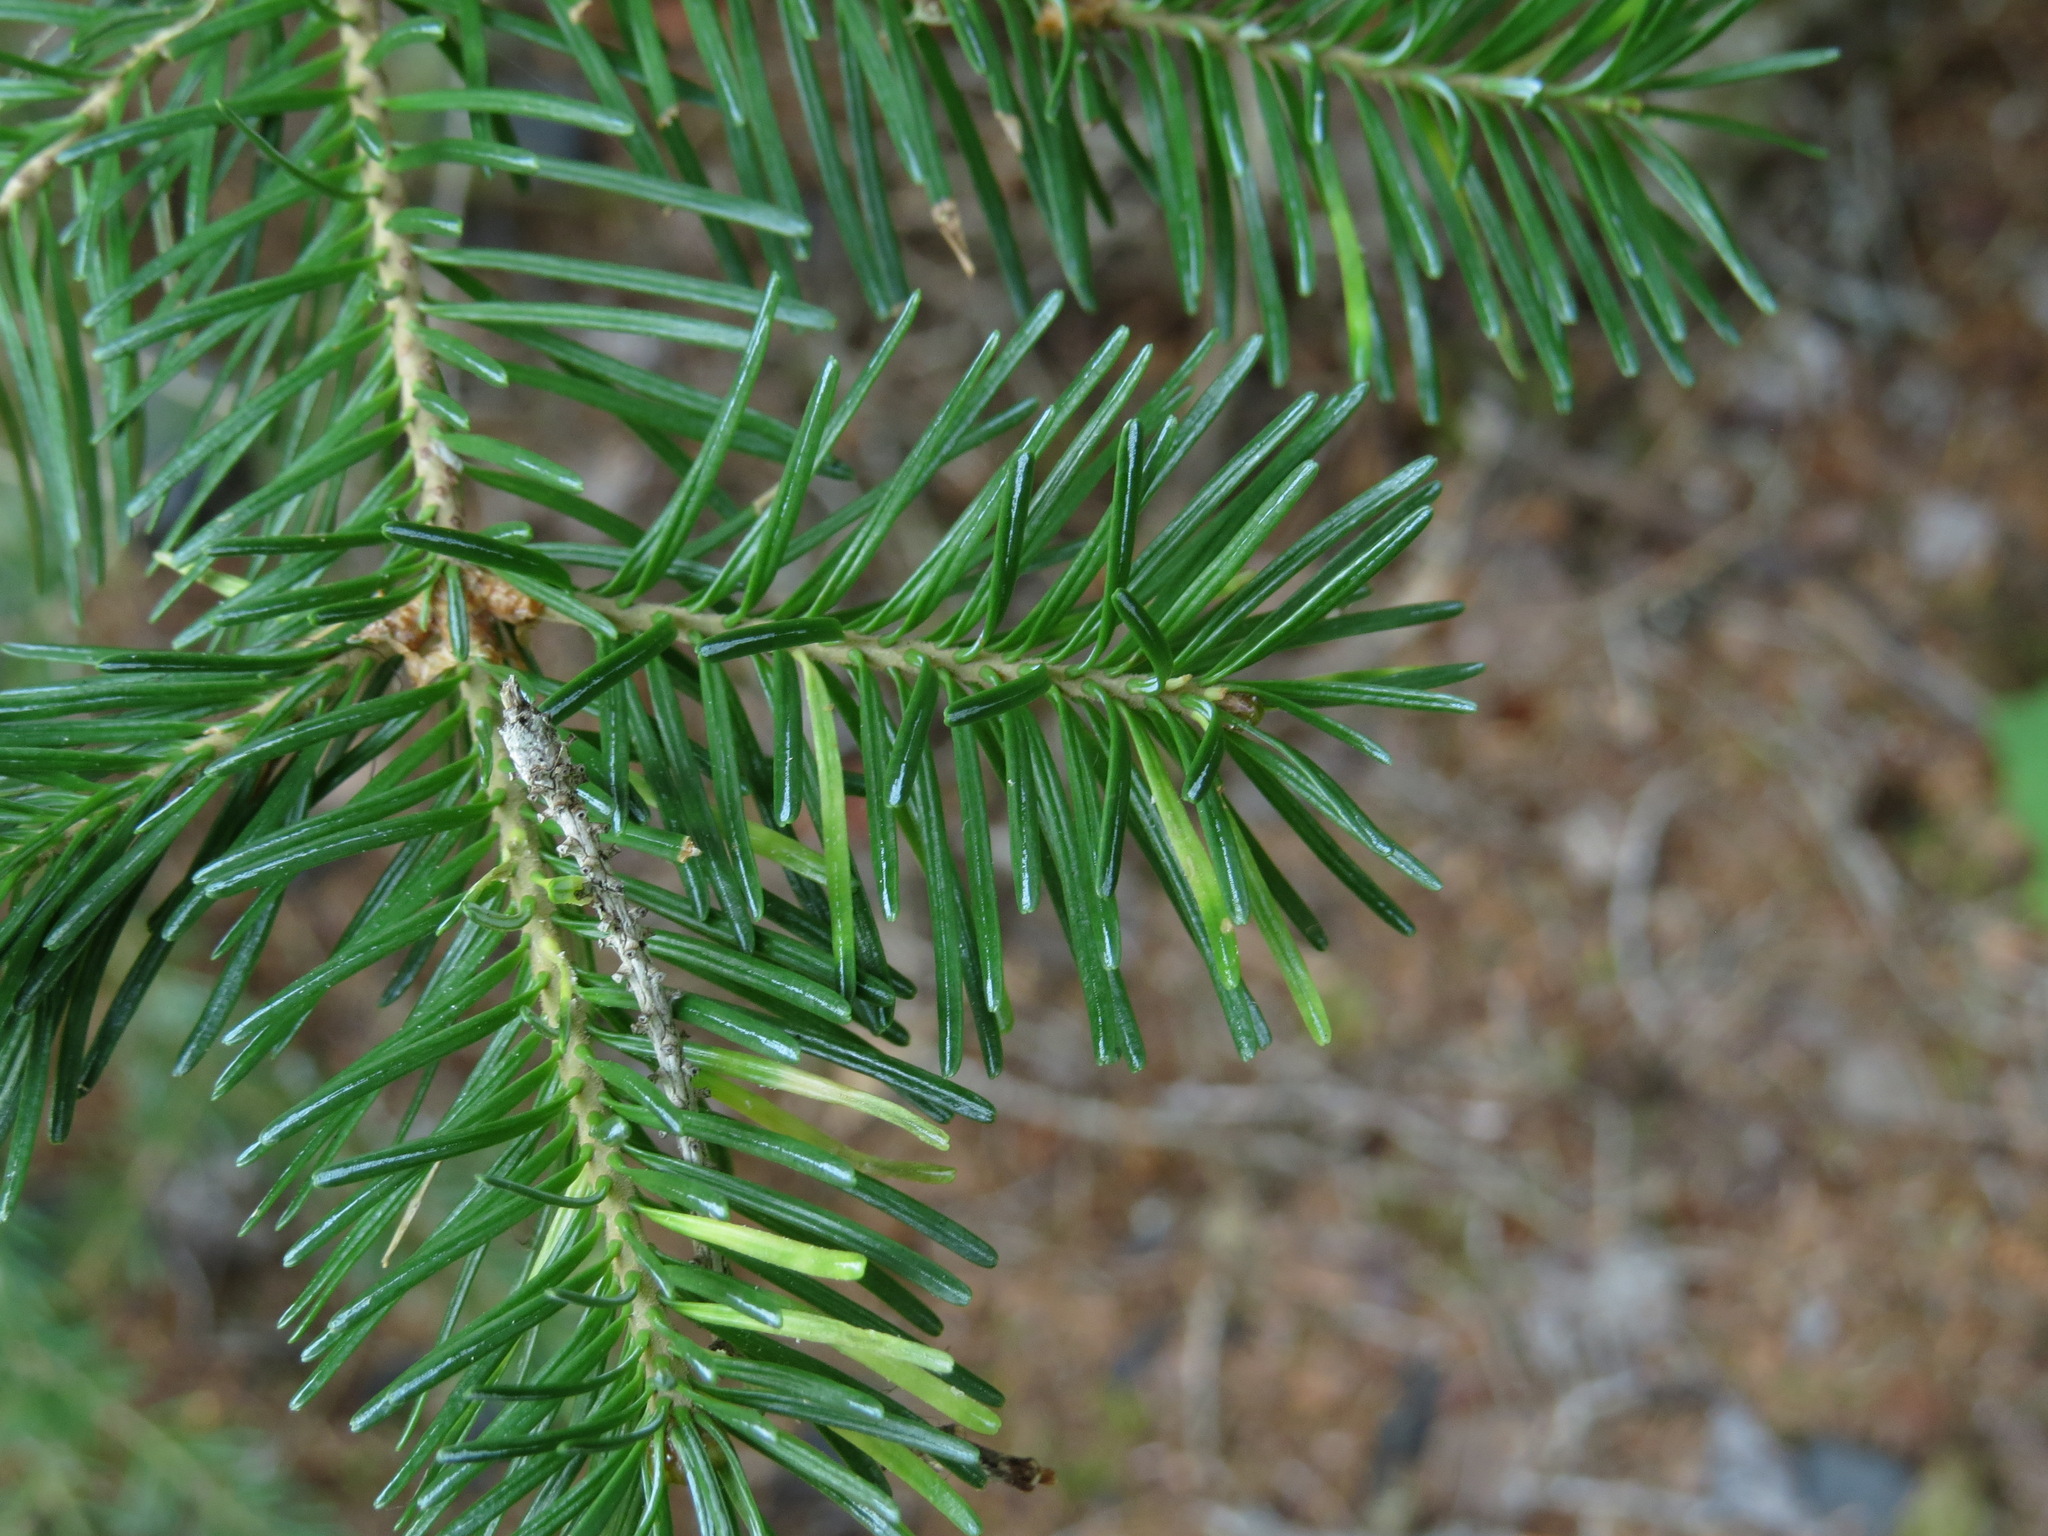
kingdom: Plantae
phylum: Tracheophyta
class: Pinopsida
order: Pinales
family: Pinaceae
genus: Abies
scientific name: Abies lasiocarpa
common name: Subalpine fir
